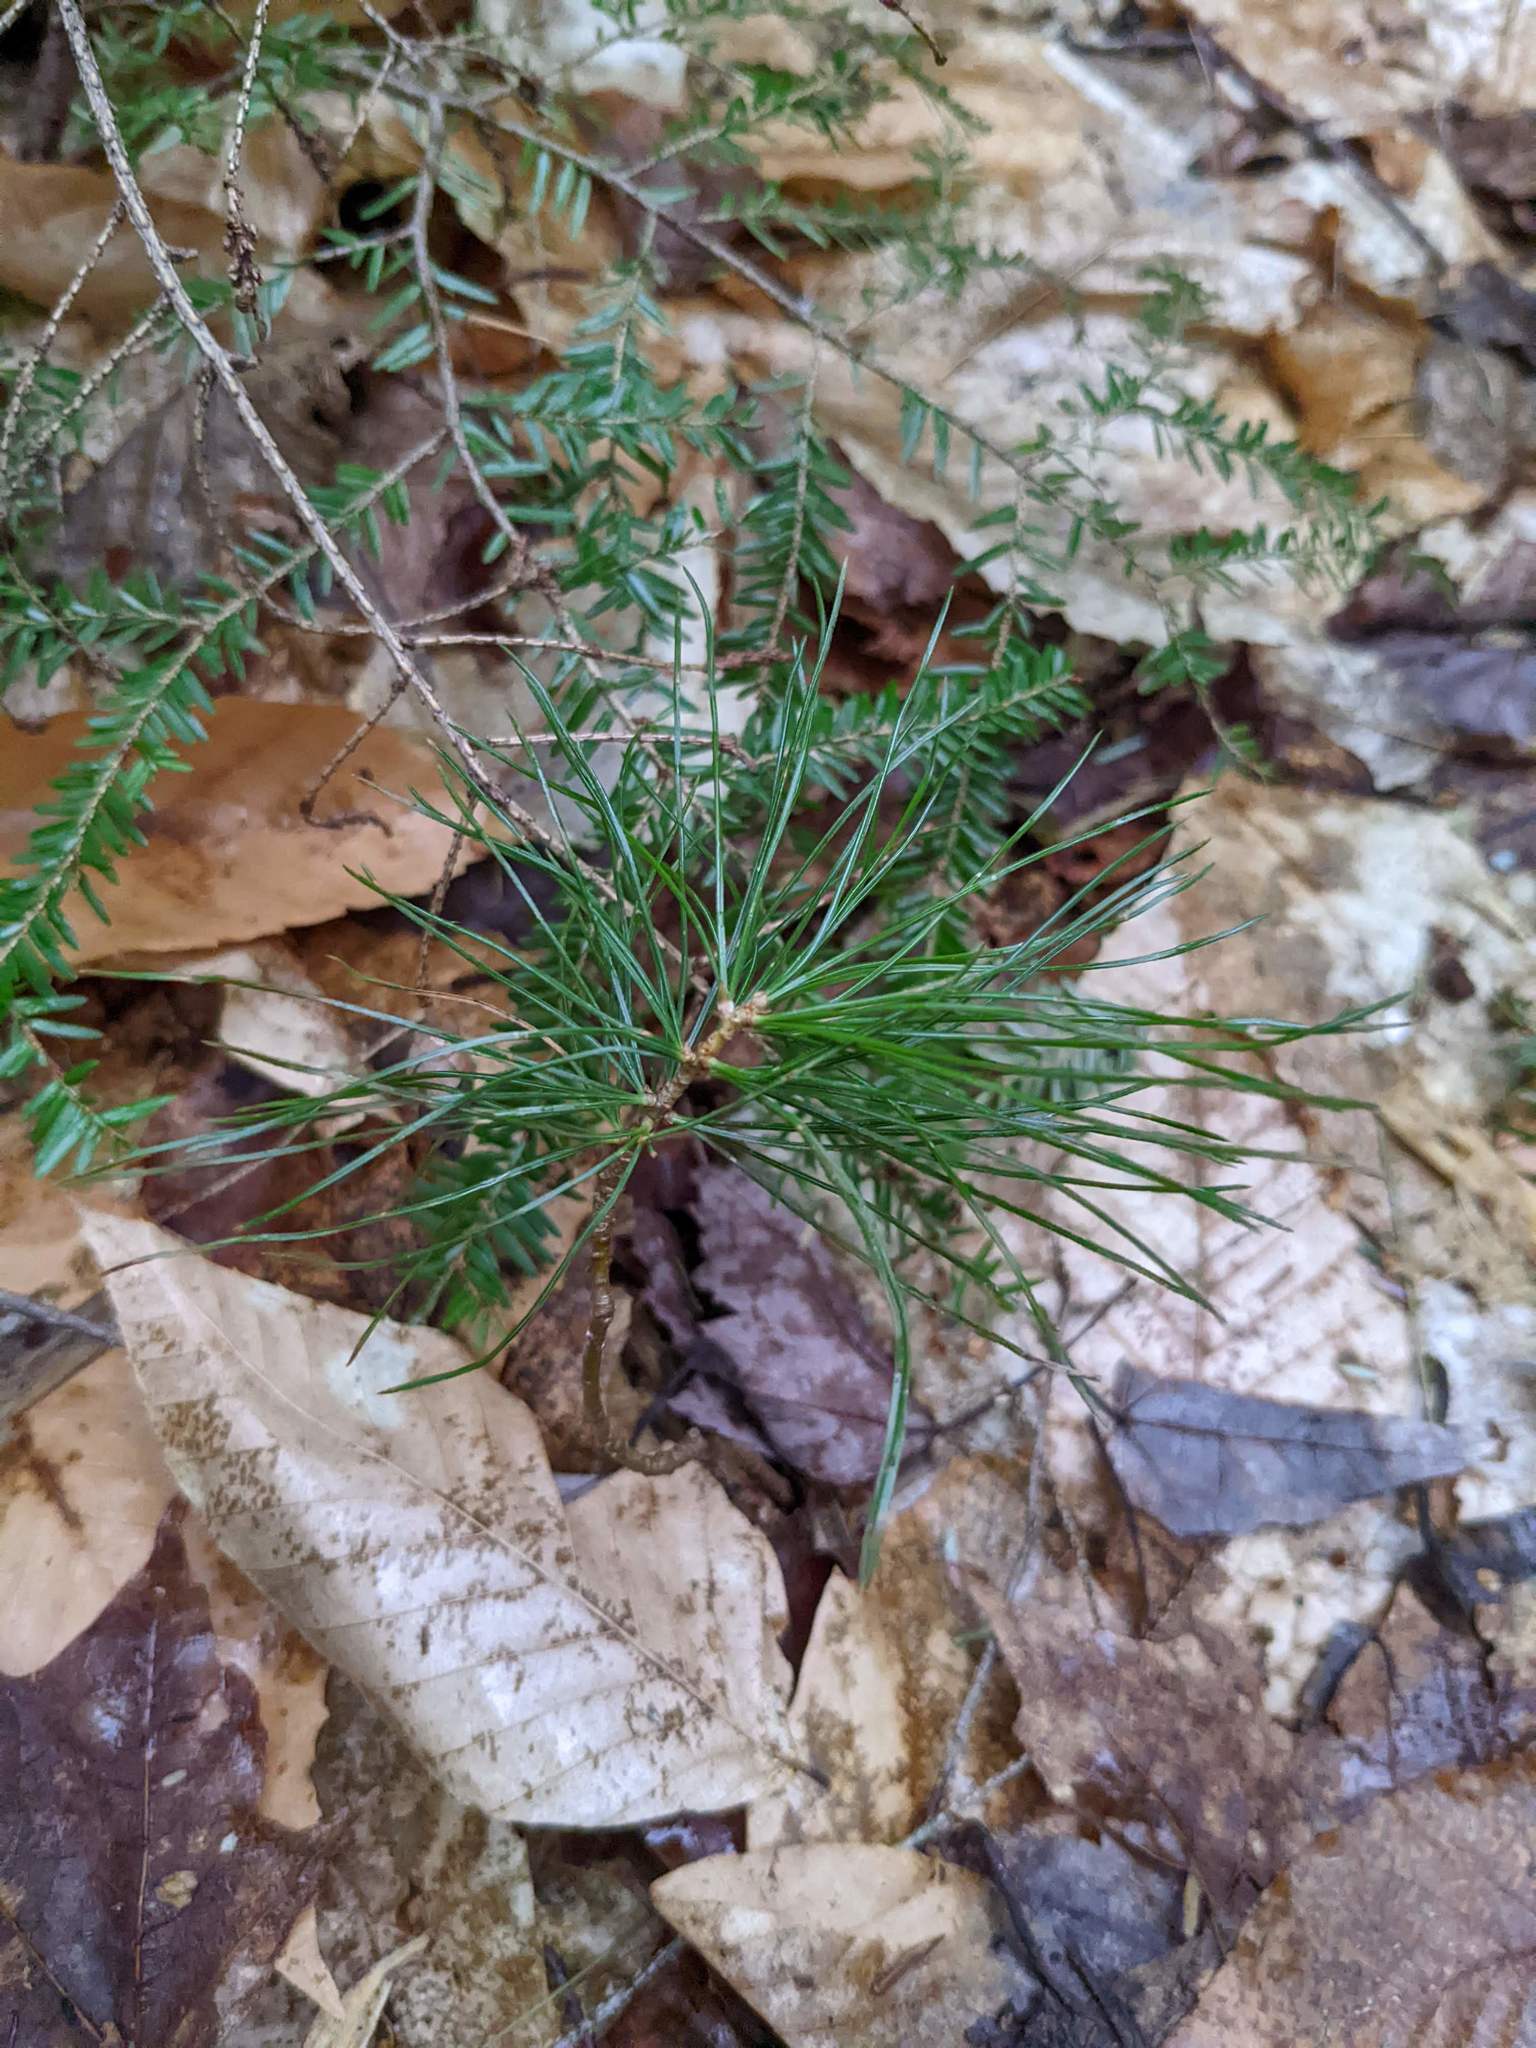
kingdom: Plantae
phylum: Tracheophyta
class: Pinopsida
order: Pinales
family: Pinaceae
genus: Pinus
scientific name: Pinus strobus
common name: Weymouth pine
